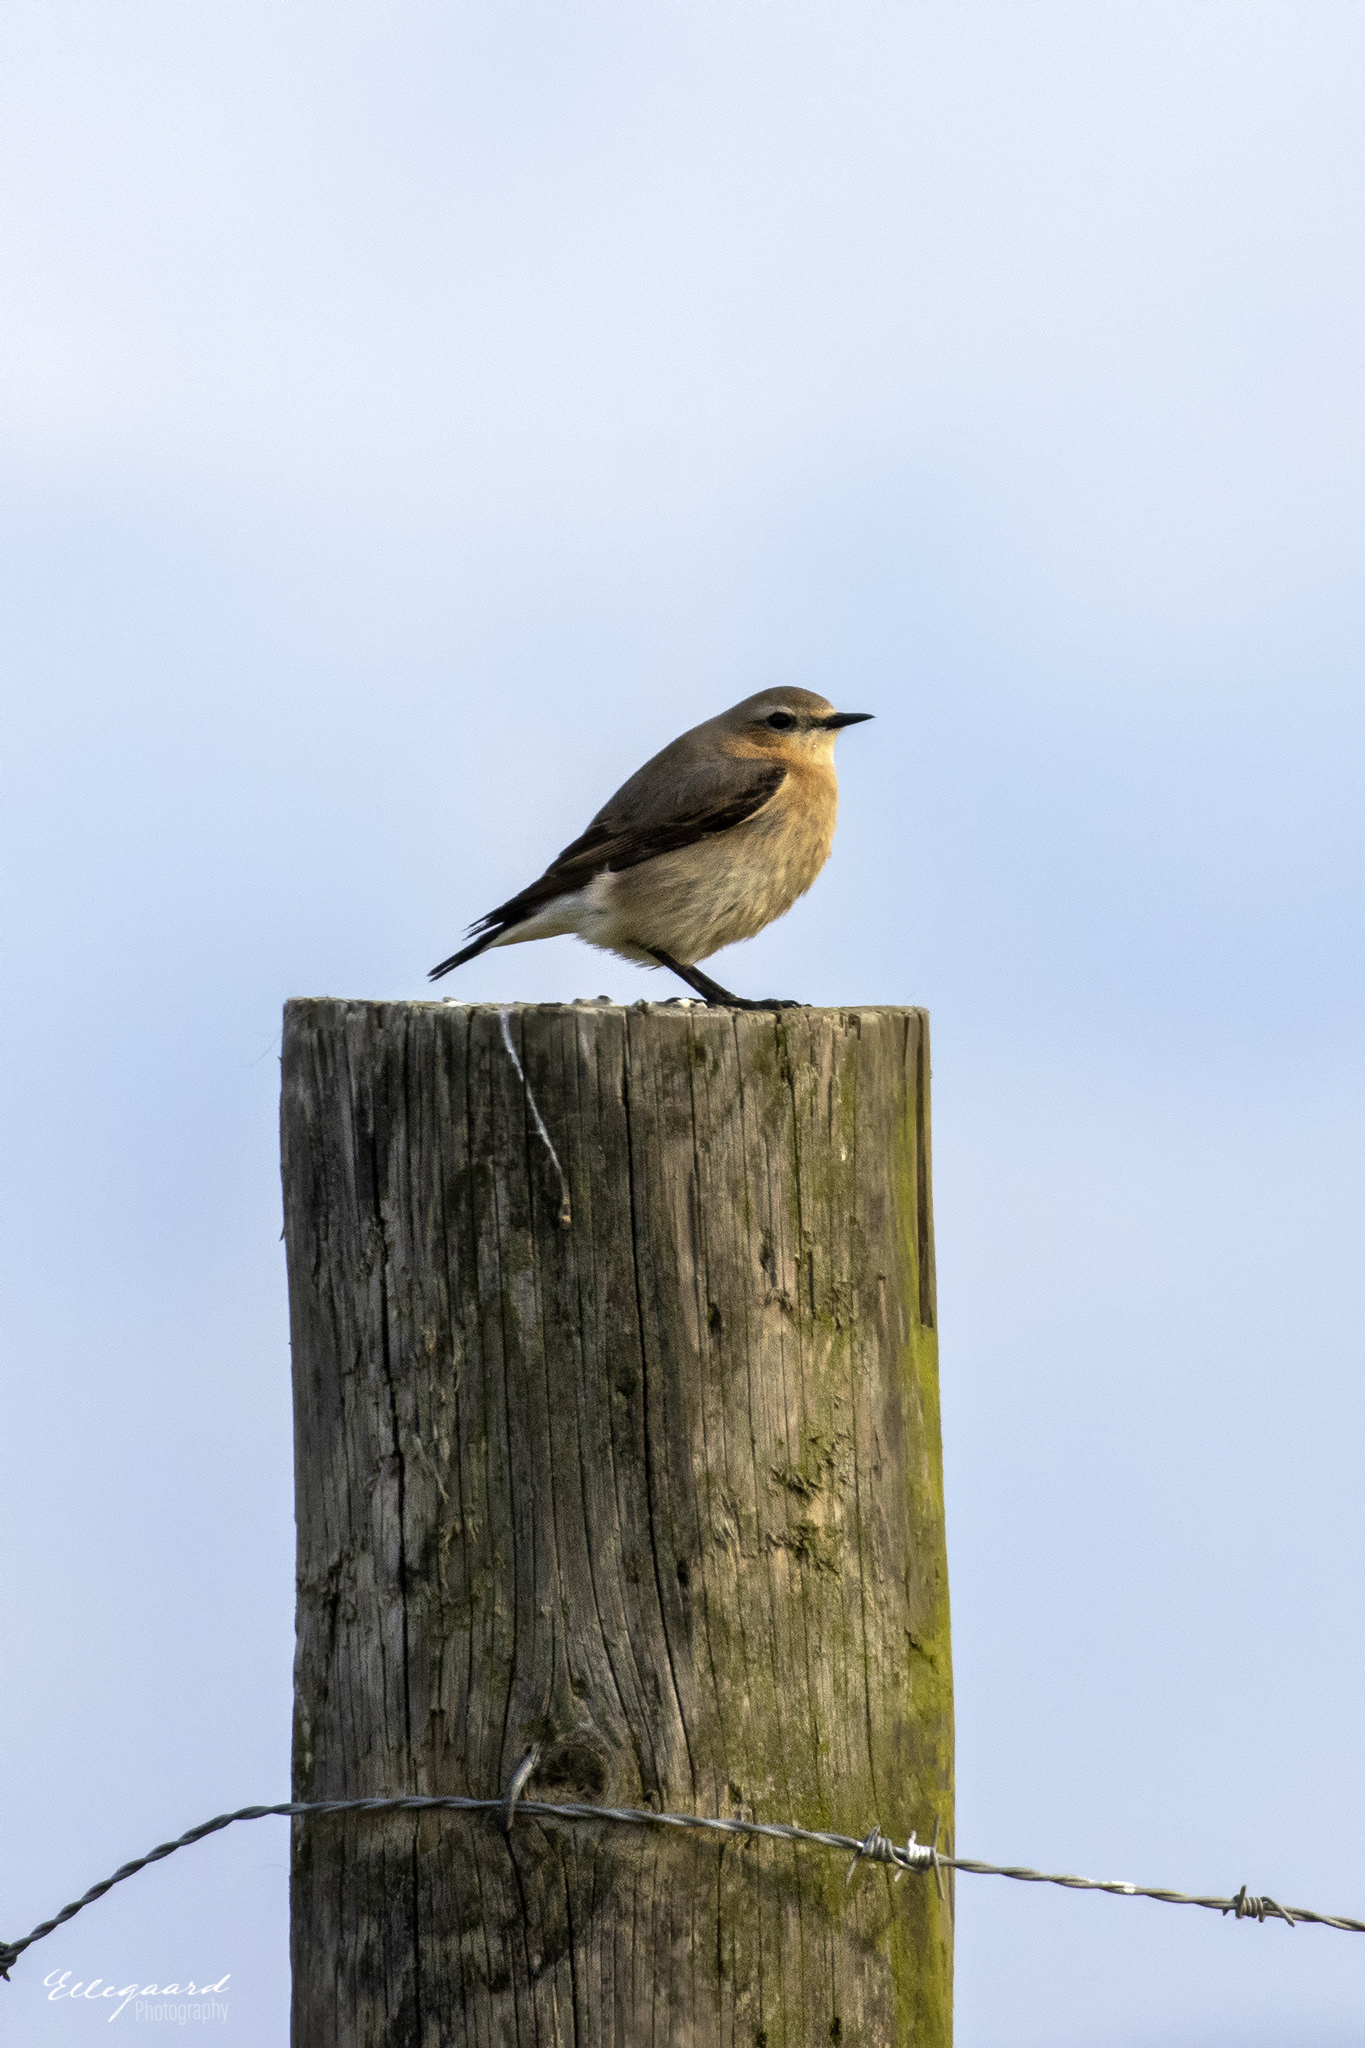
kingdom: Animalia
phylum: Chordata
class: Aves
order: Passeriformes
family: Muscicapidae
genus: Oenanthe
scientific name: Oenanthe oenanthe
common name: Northern wheatear
